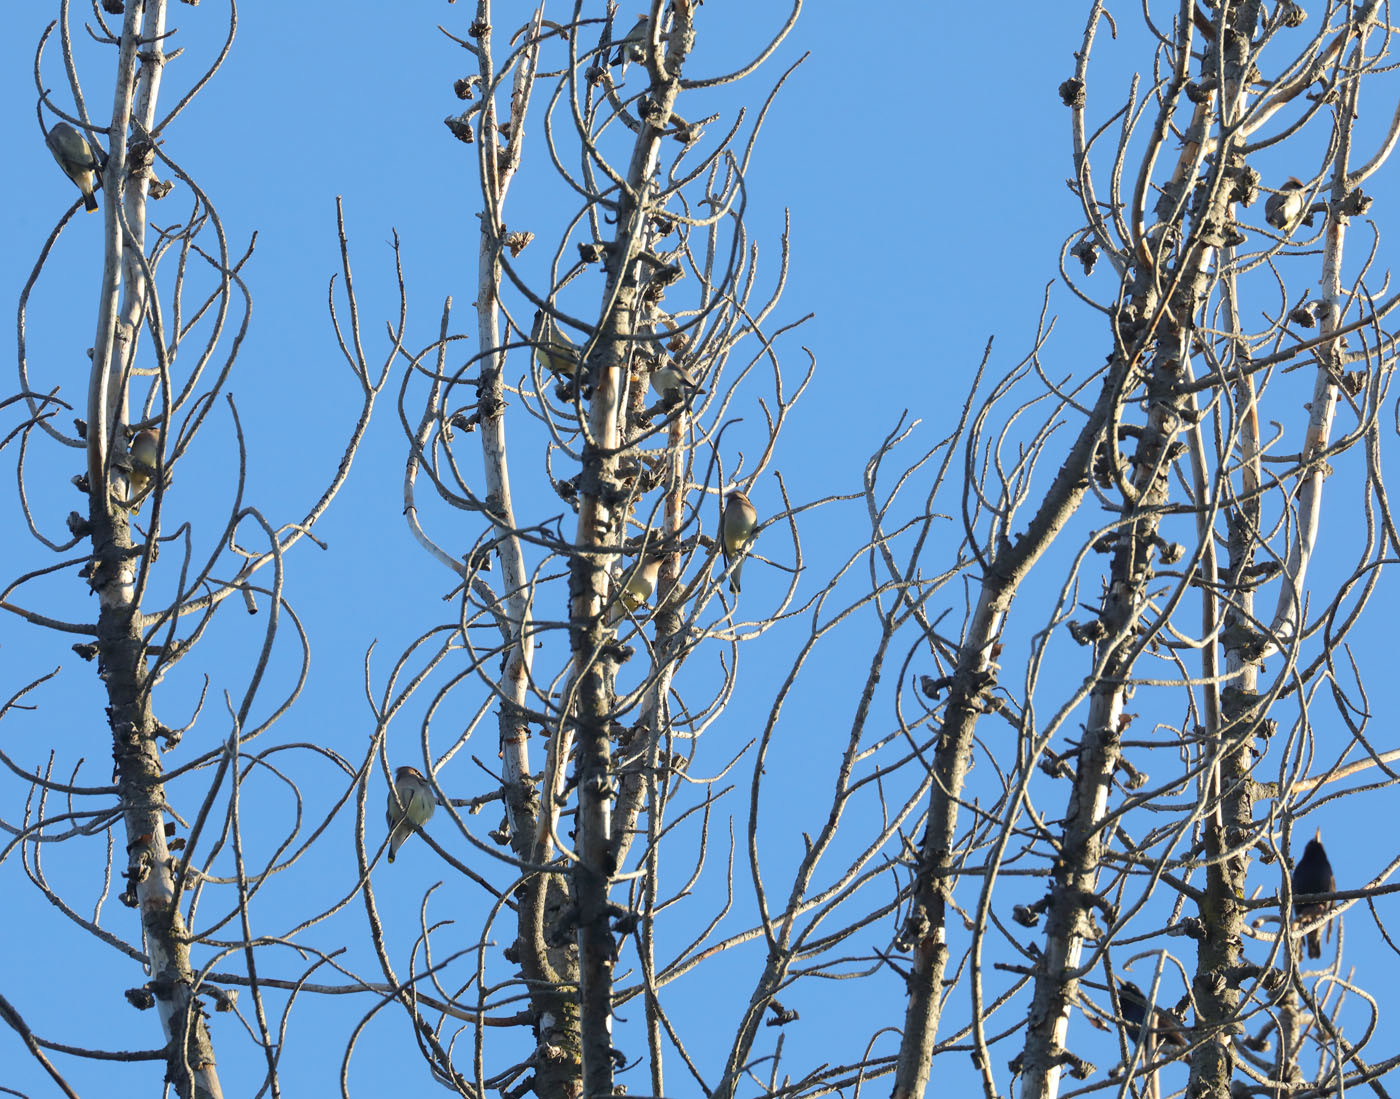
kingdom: Animalia
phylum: Chordata
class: Aves
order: Passeriformes
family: Sturnidae
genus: Sturnus
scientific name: Sturnus vulgaris
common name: Common starling
